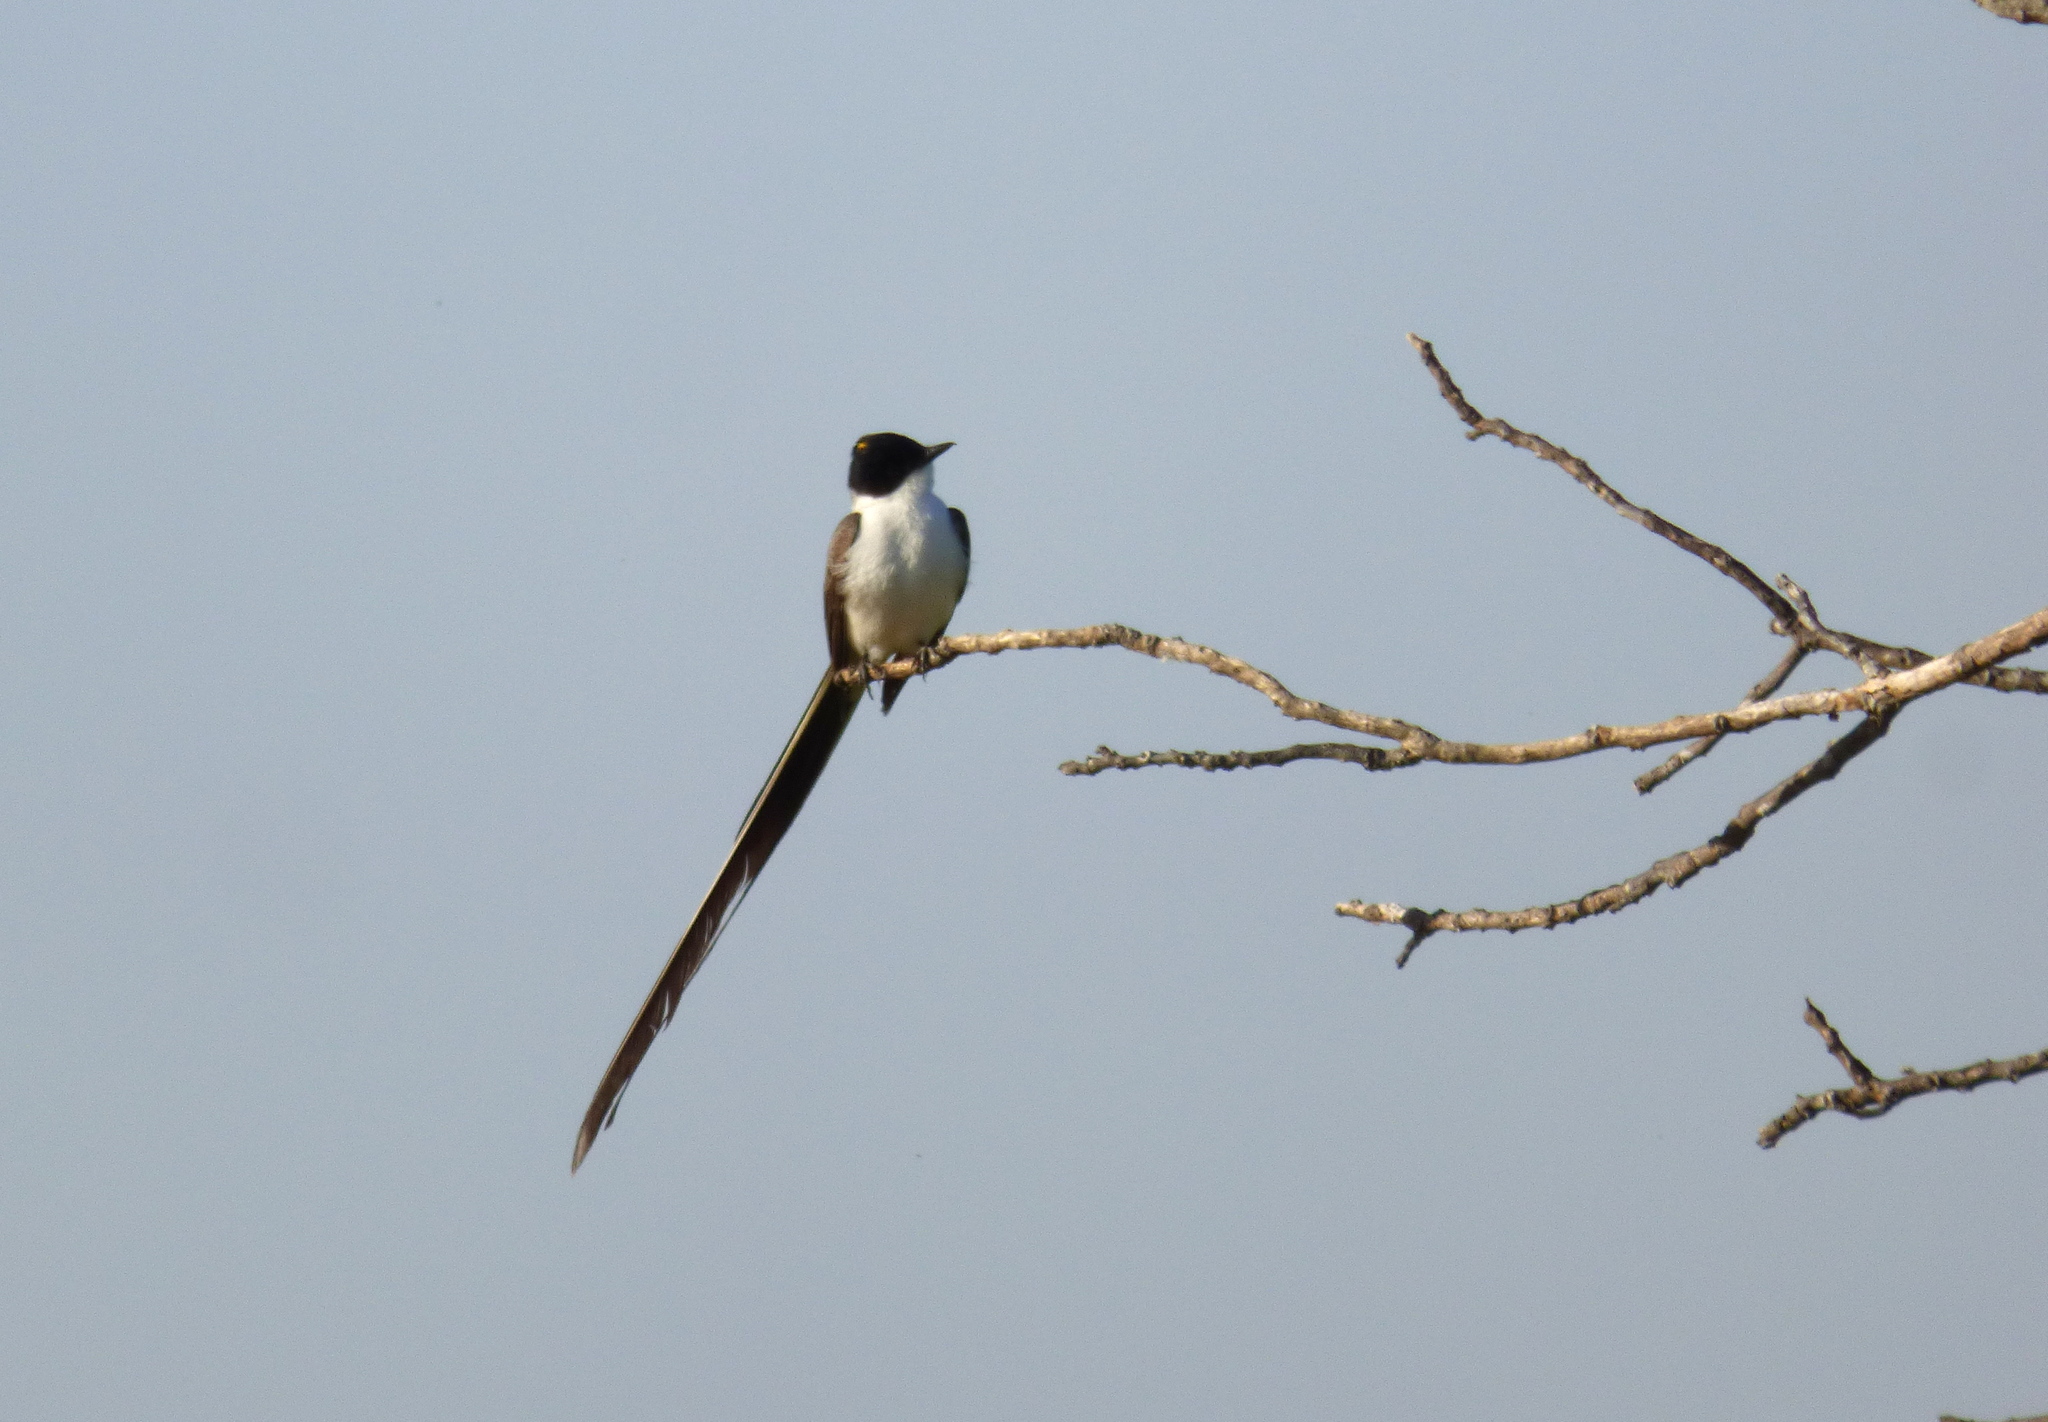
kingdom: Animalia
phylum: Chordata
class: Aves
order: Passeriformes
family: Tyrannidae
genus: Tyrannus
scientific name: Tyrannus savana
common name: Fork-tailed flycatcher
